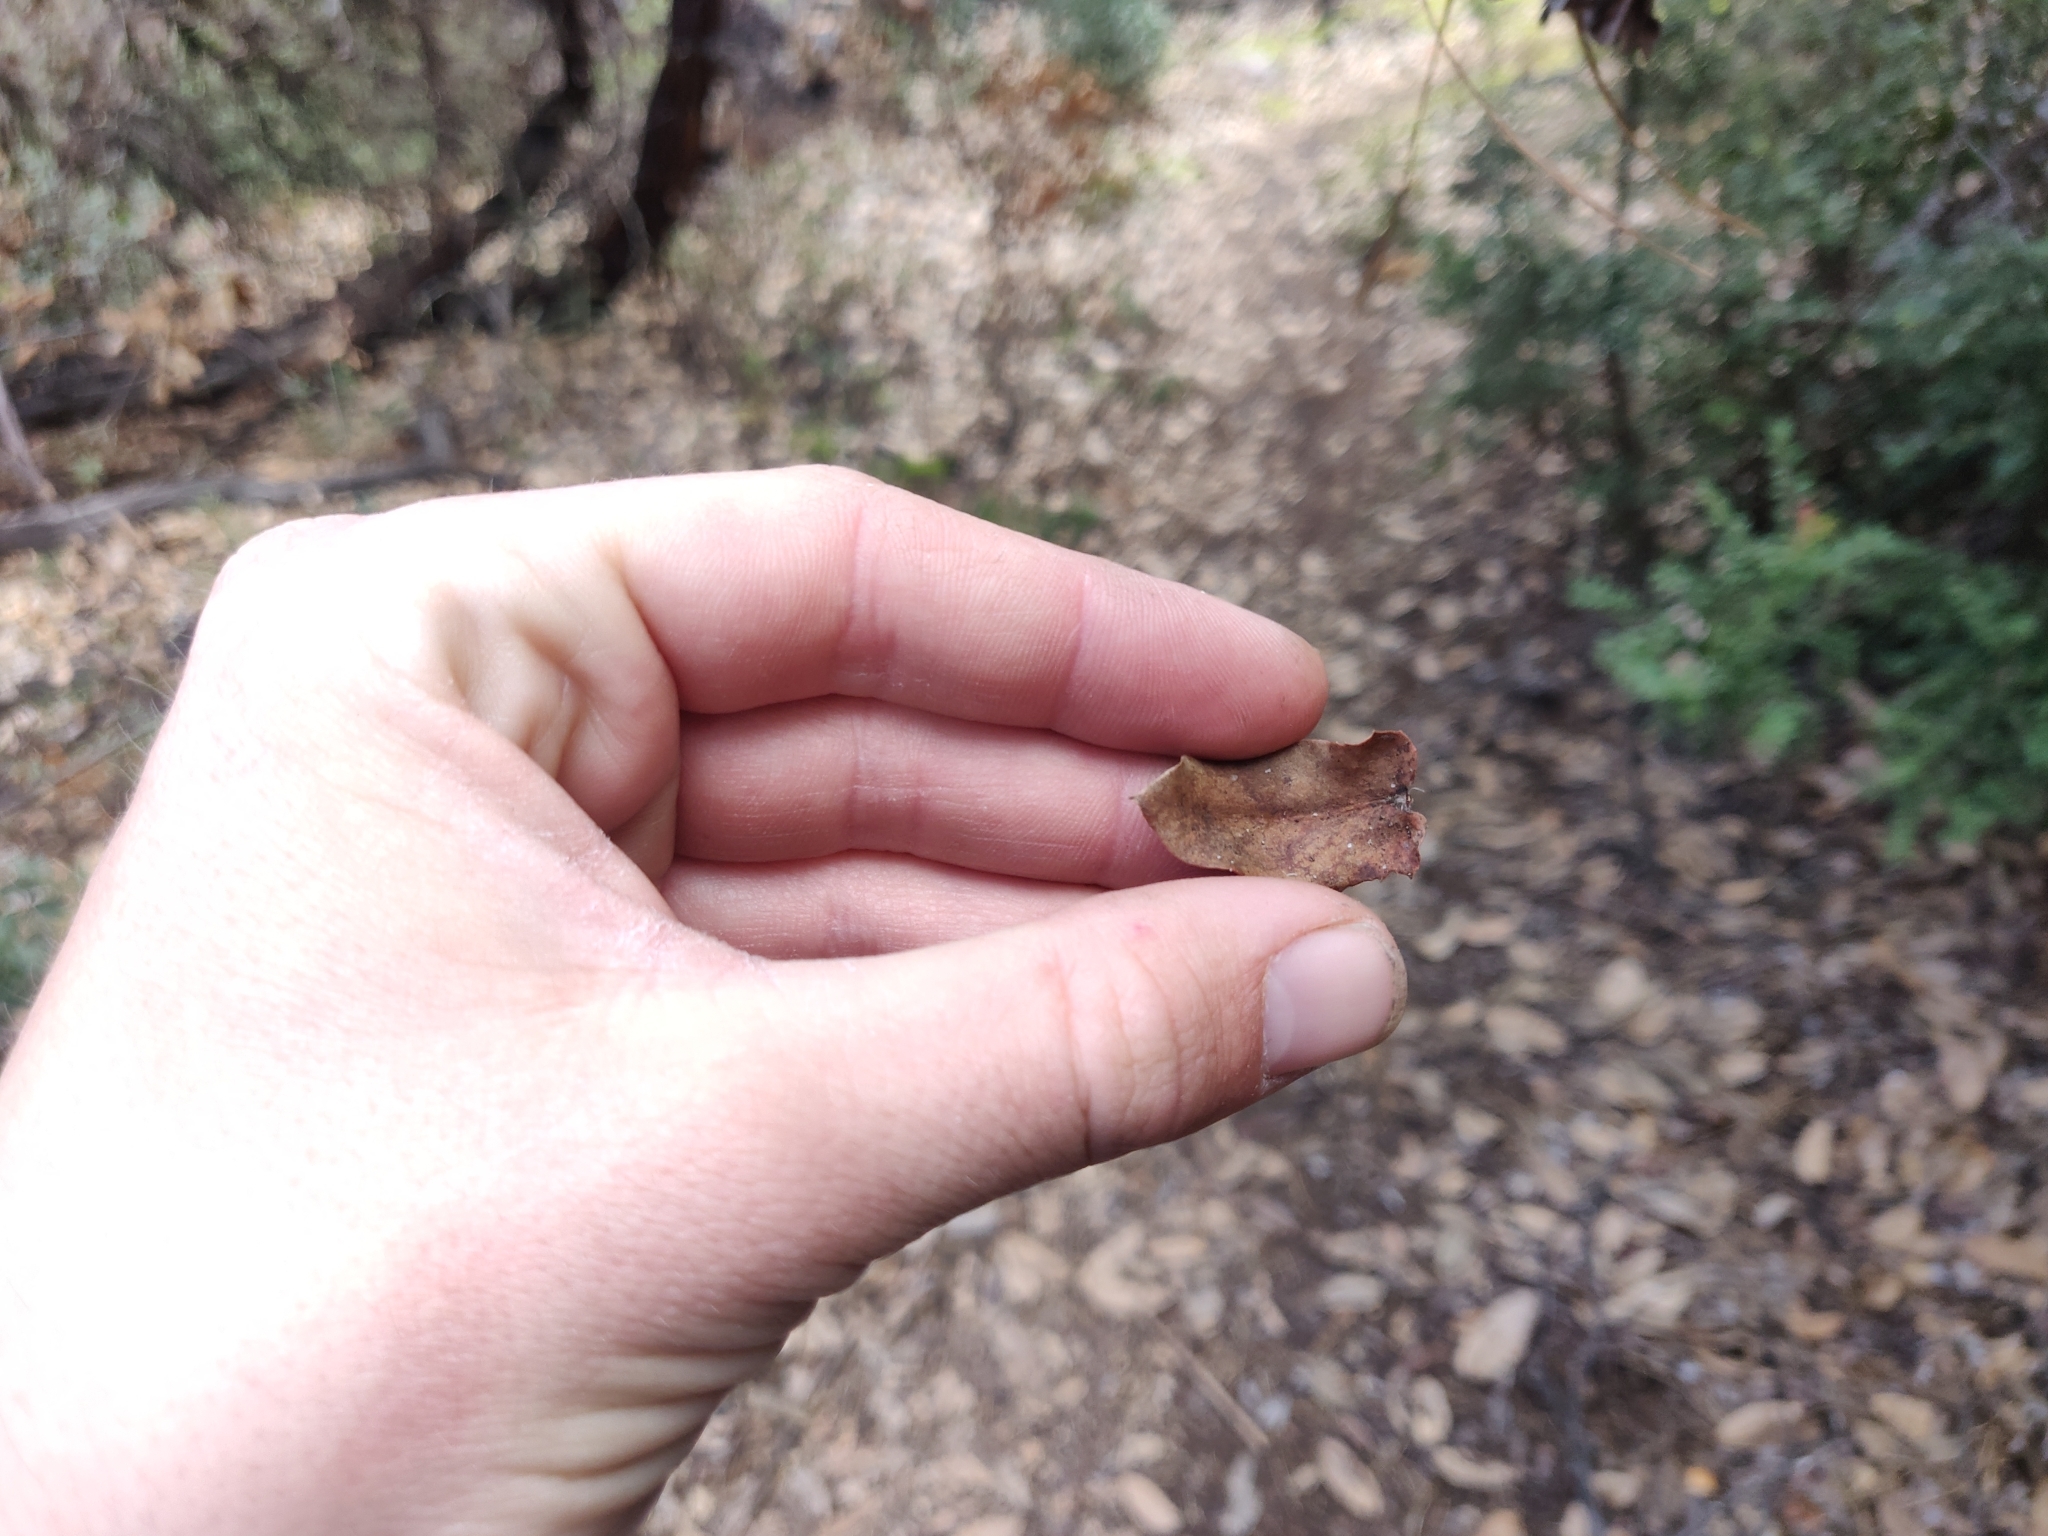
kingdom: Plantae
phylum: Tracheophyta
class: Magnoliopsida
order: Ericales
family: Ericaceae
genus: Arctostaphylos
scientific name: Arctostaphylos andersonii
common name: Santa cruz manzanita
